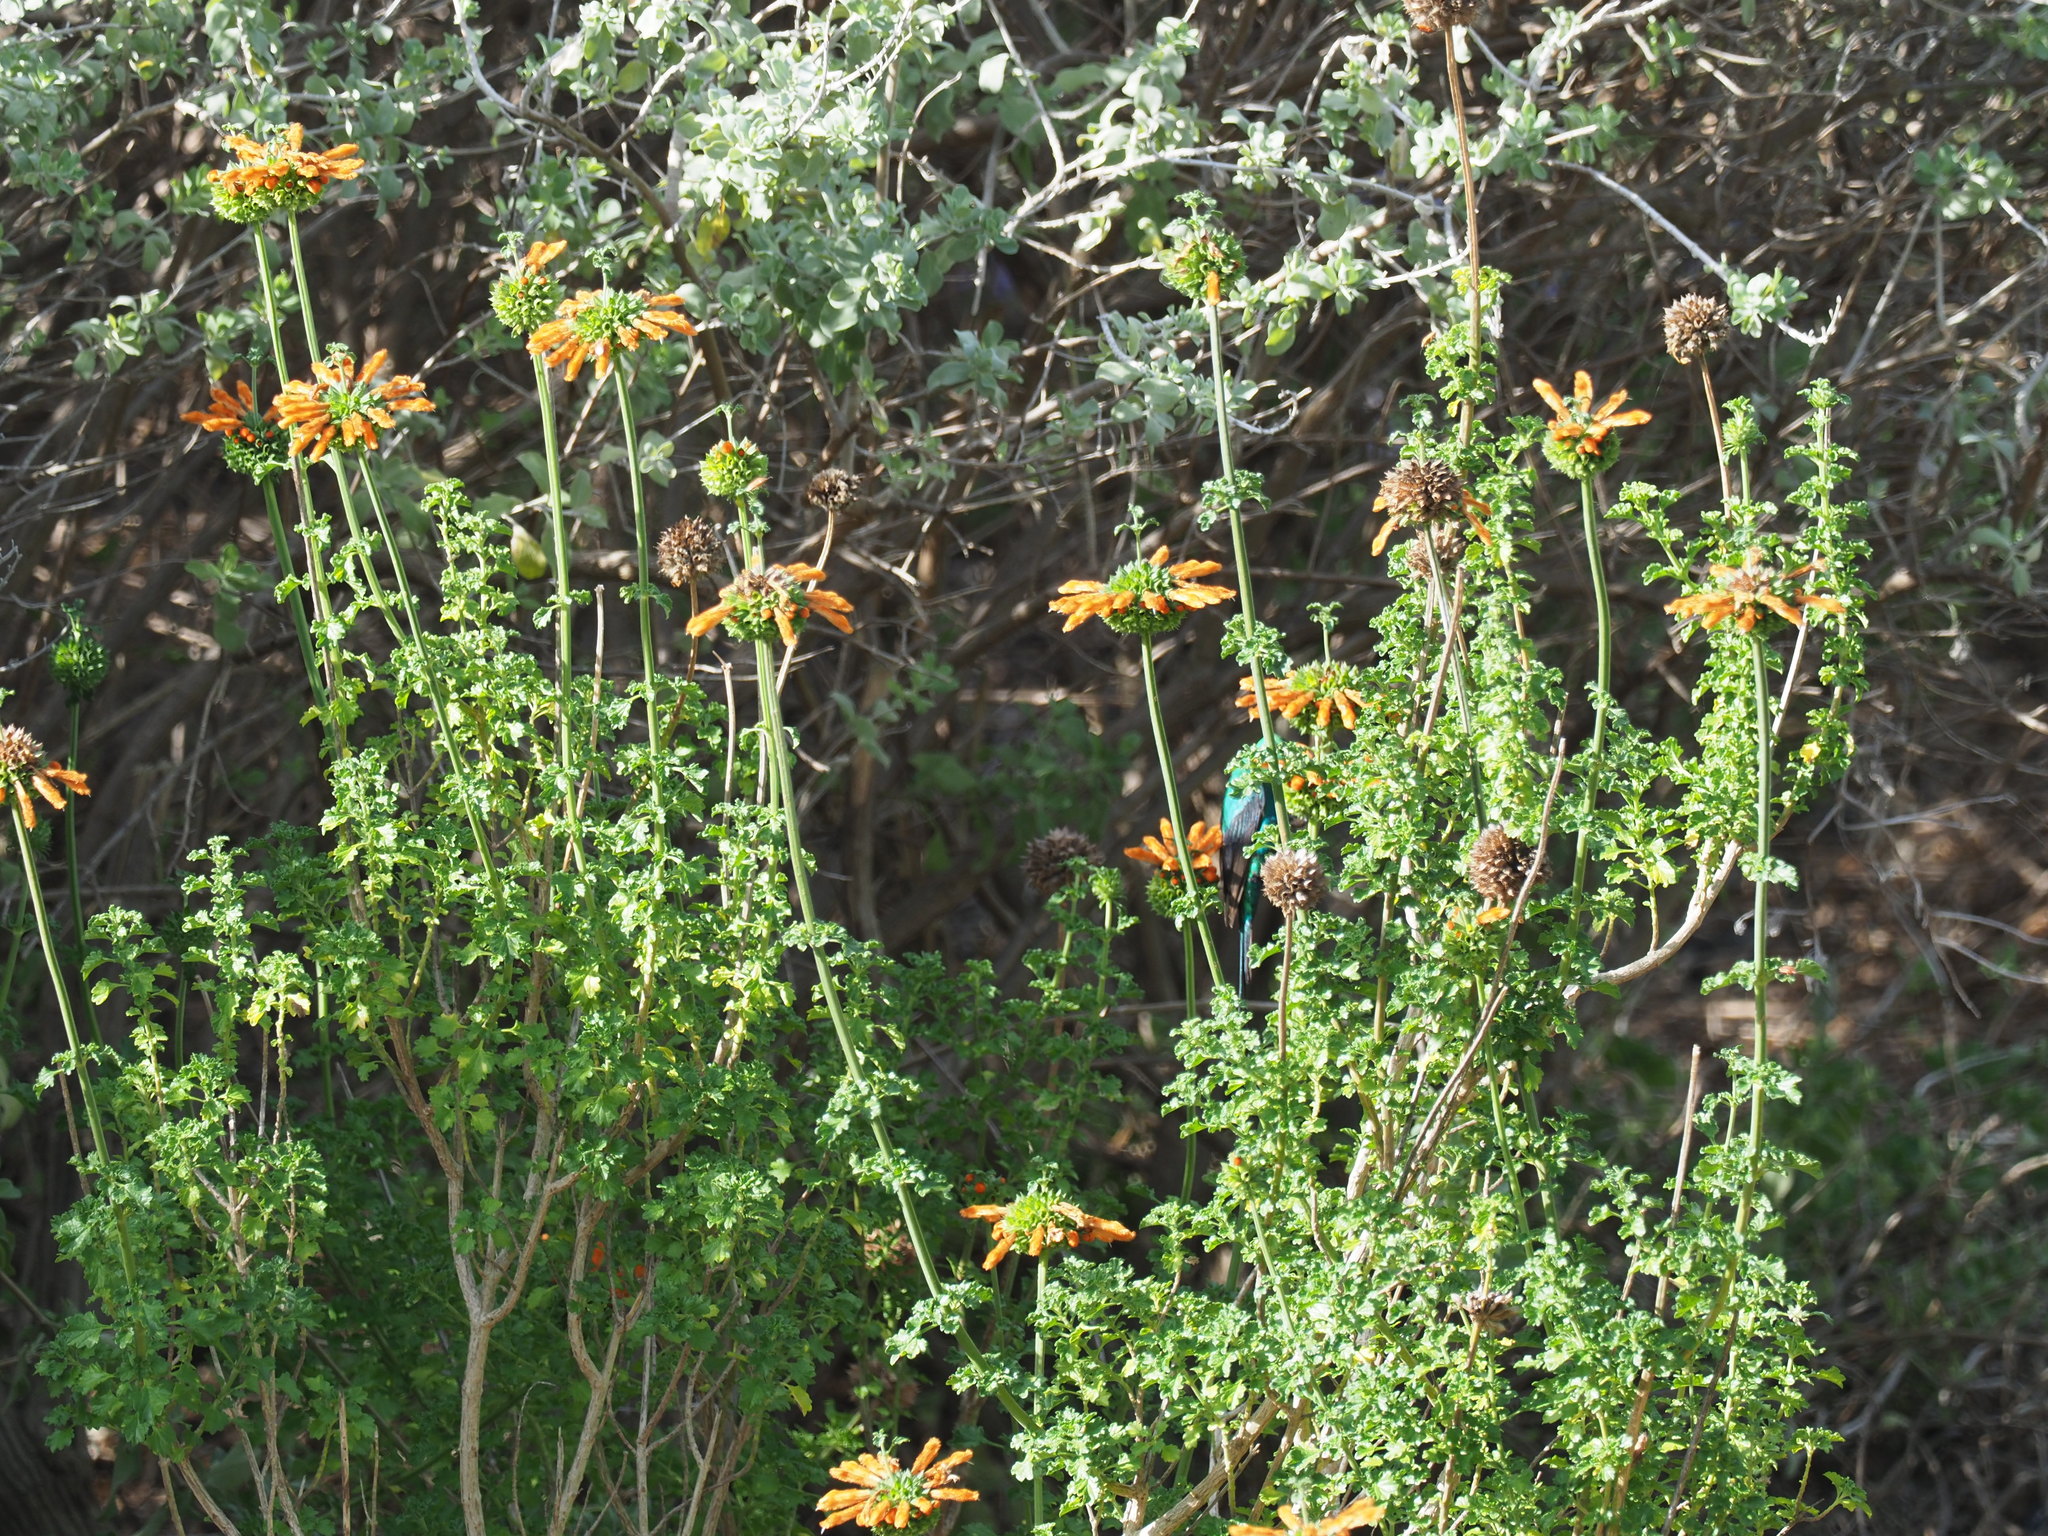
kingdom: Animalia
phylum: Chordata
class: Aves
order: Passeriformes
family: Nectariniidae
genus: Nectarinia
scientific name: Nectarinia famosa
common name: Malachite sunbird
